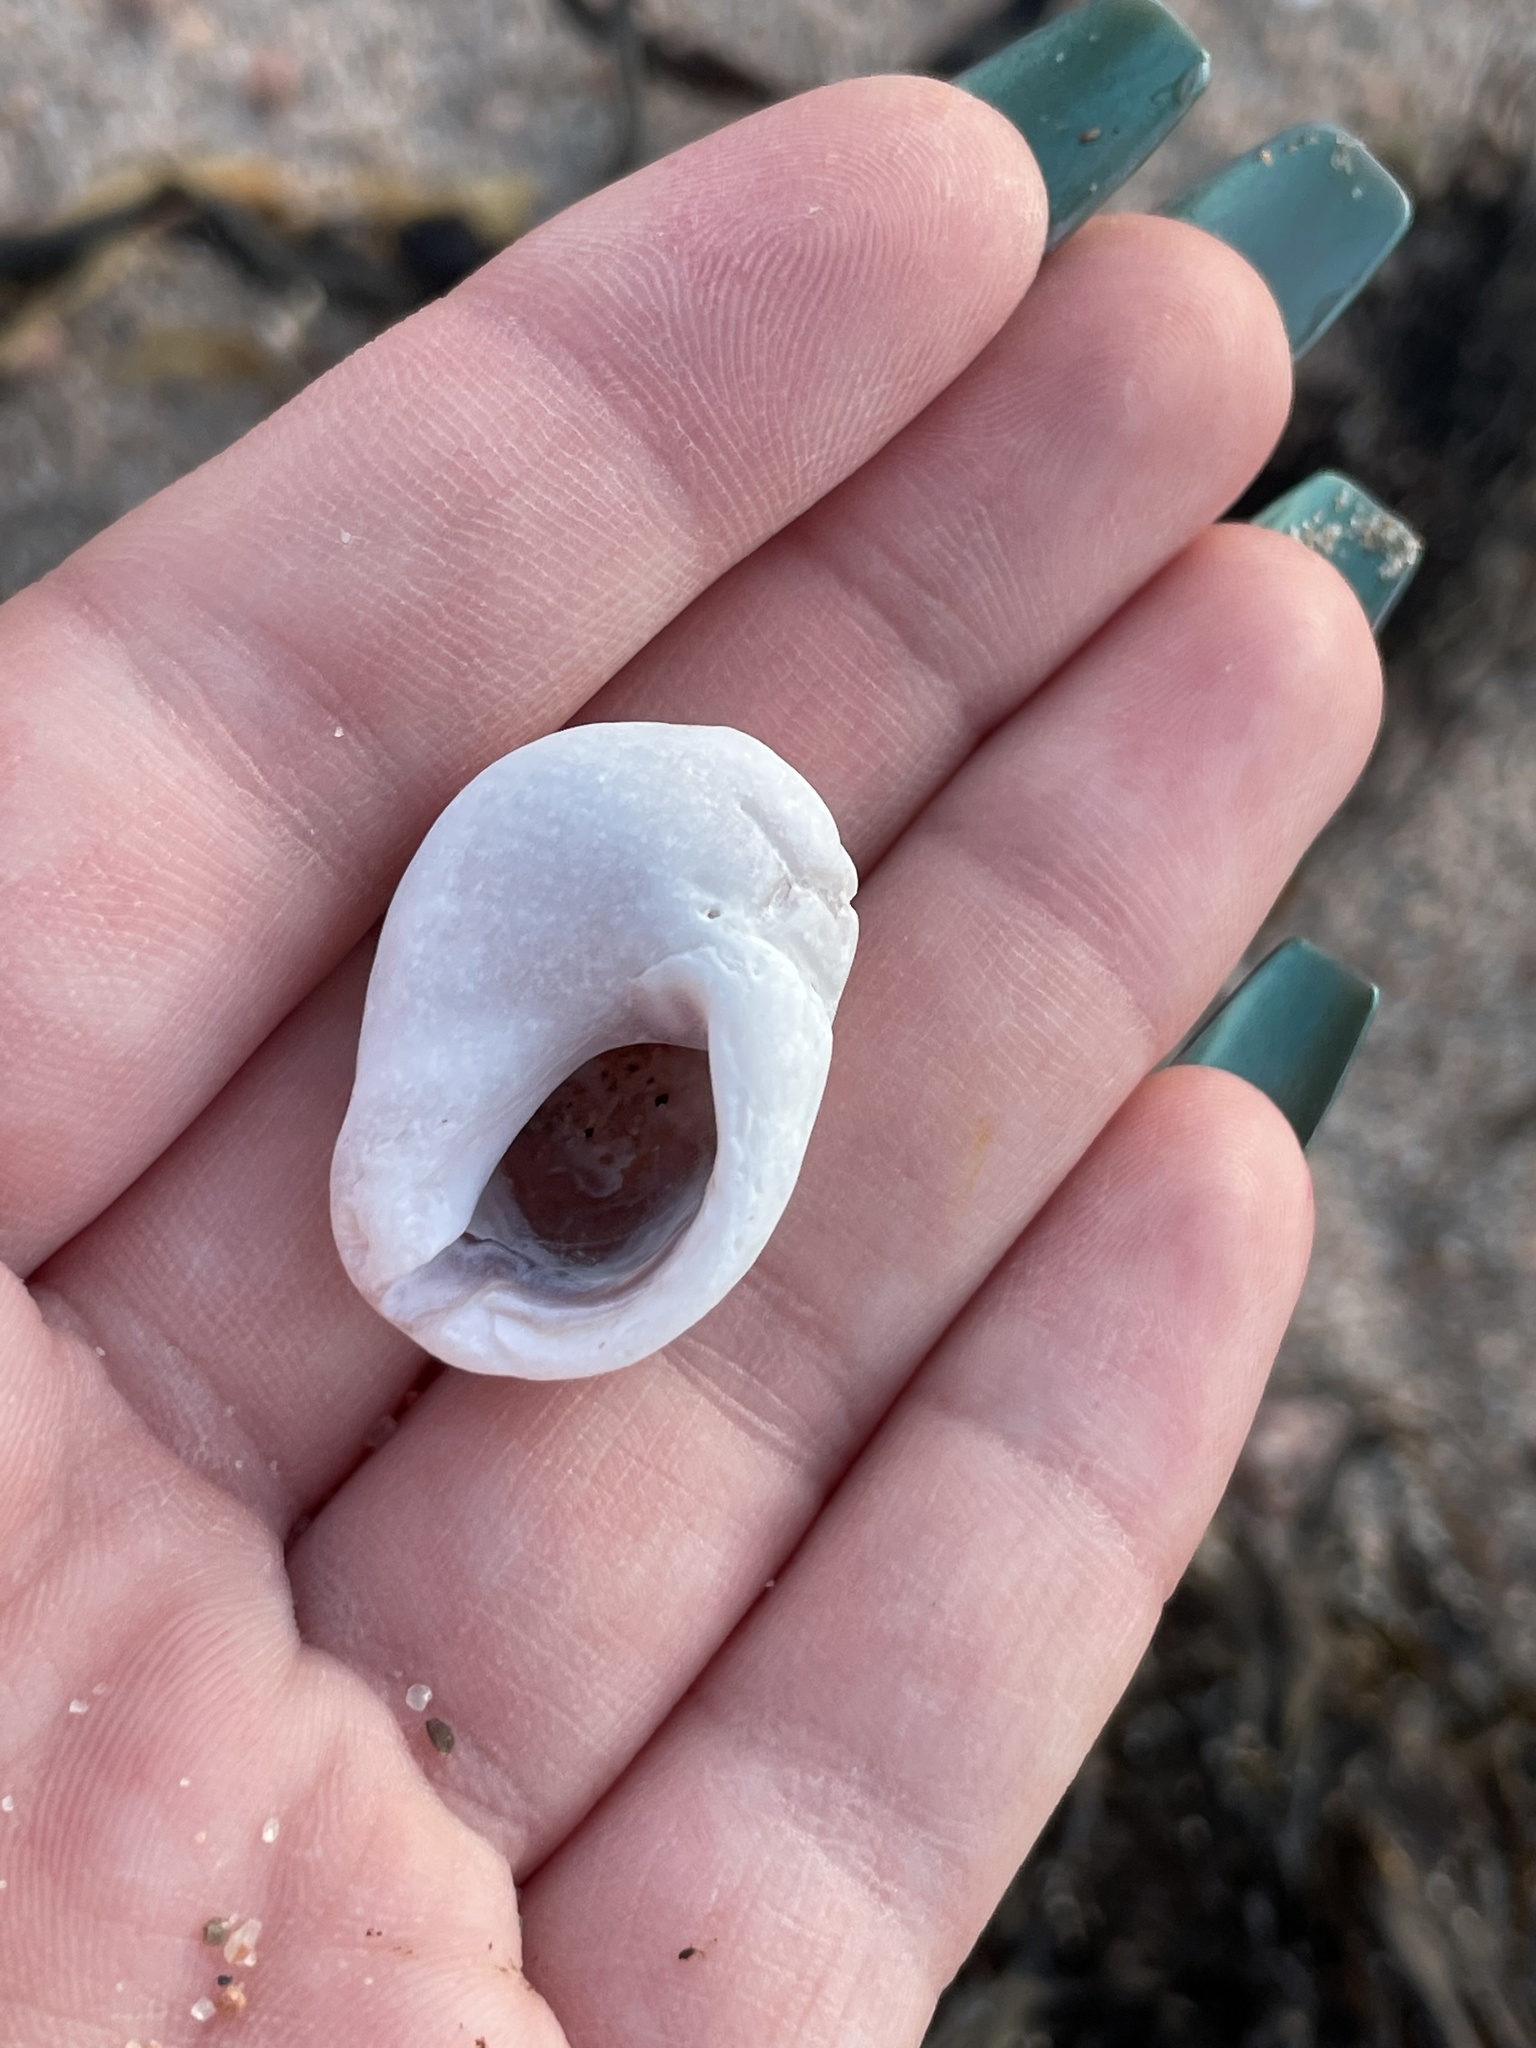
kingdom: Animalia
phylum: Mollusca
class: Gastropoda
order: Neogastropoda
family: Muricidae
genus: Nucella
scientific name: Nucella lapillus
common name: Dog whelk
